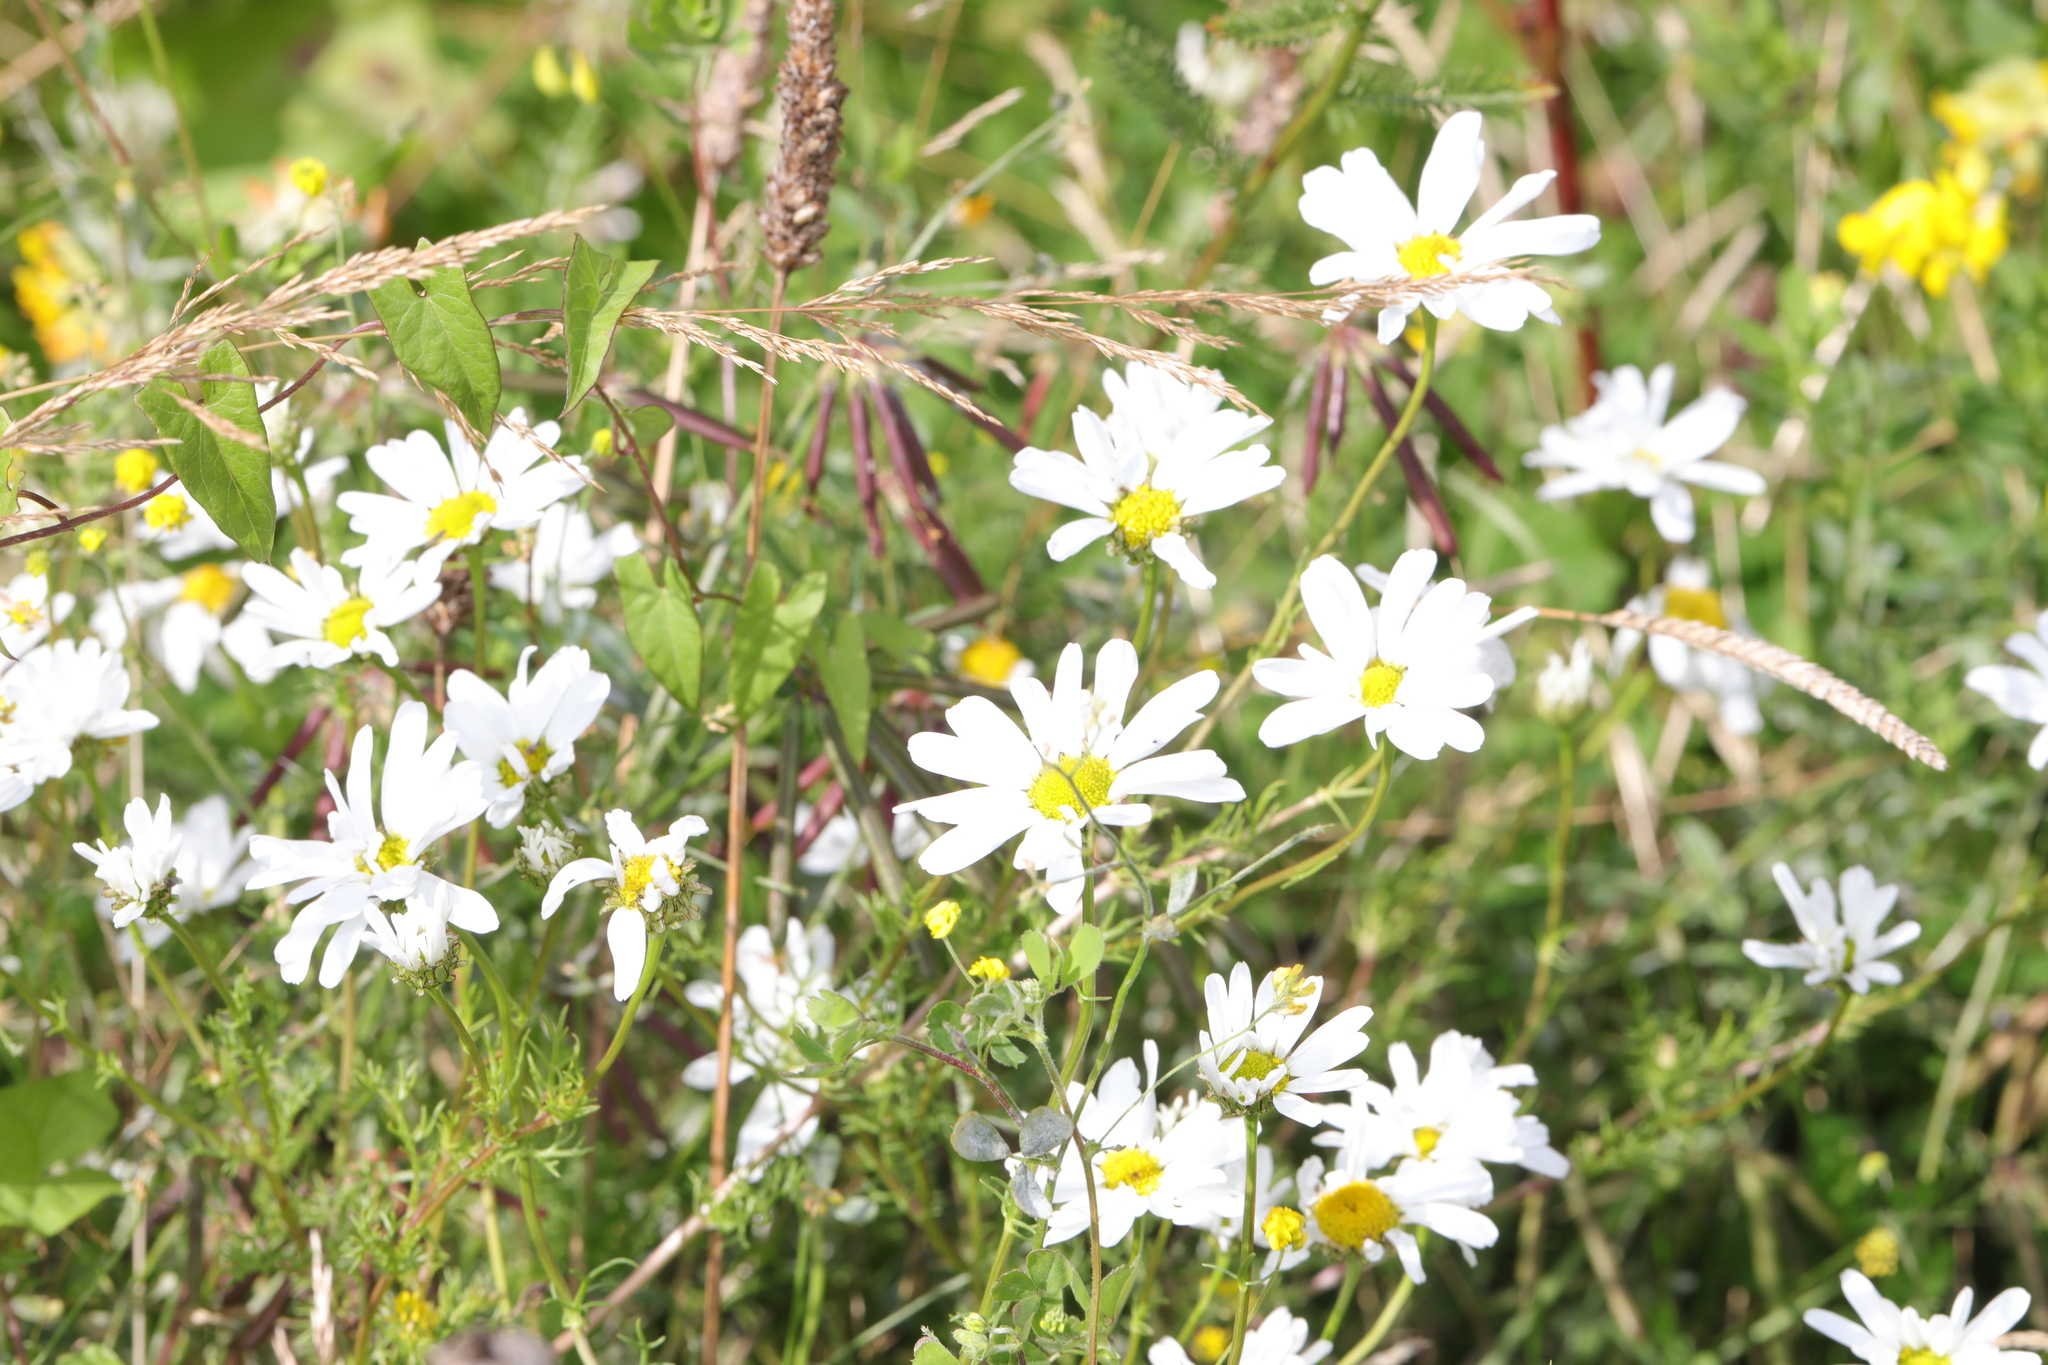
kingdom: Plantae
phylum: Tracheophyta
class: Magnoliopsida
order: Asterales
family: Asteraceae
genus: Tripleurospermum
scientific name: Tripleurospermum inodorum
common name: Scentless mayweed
